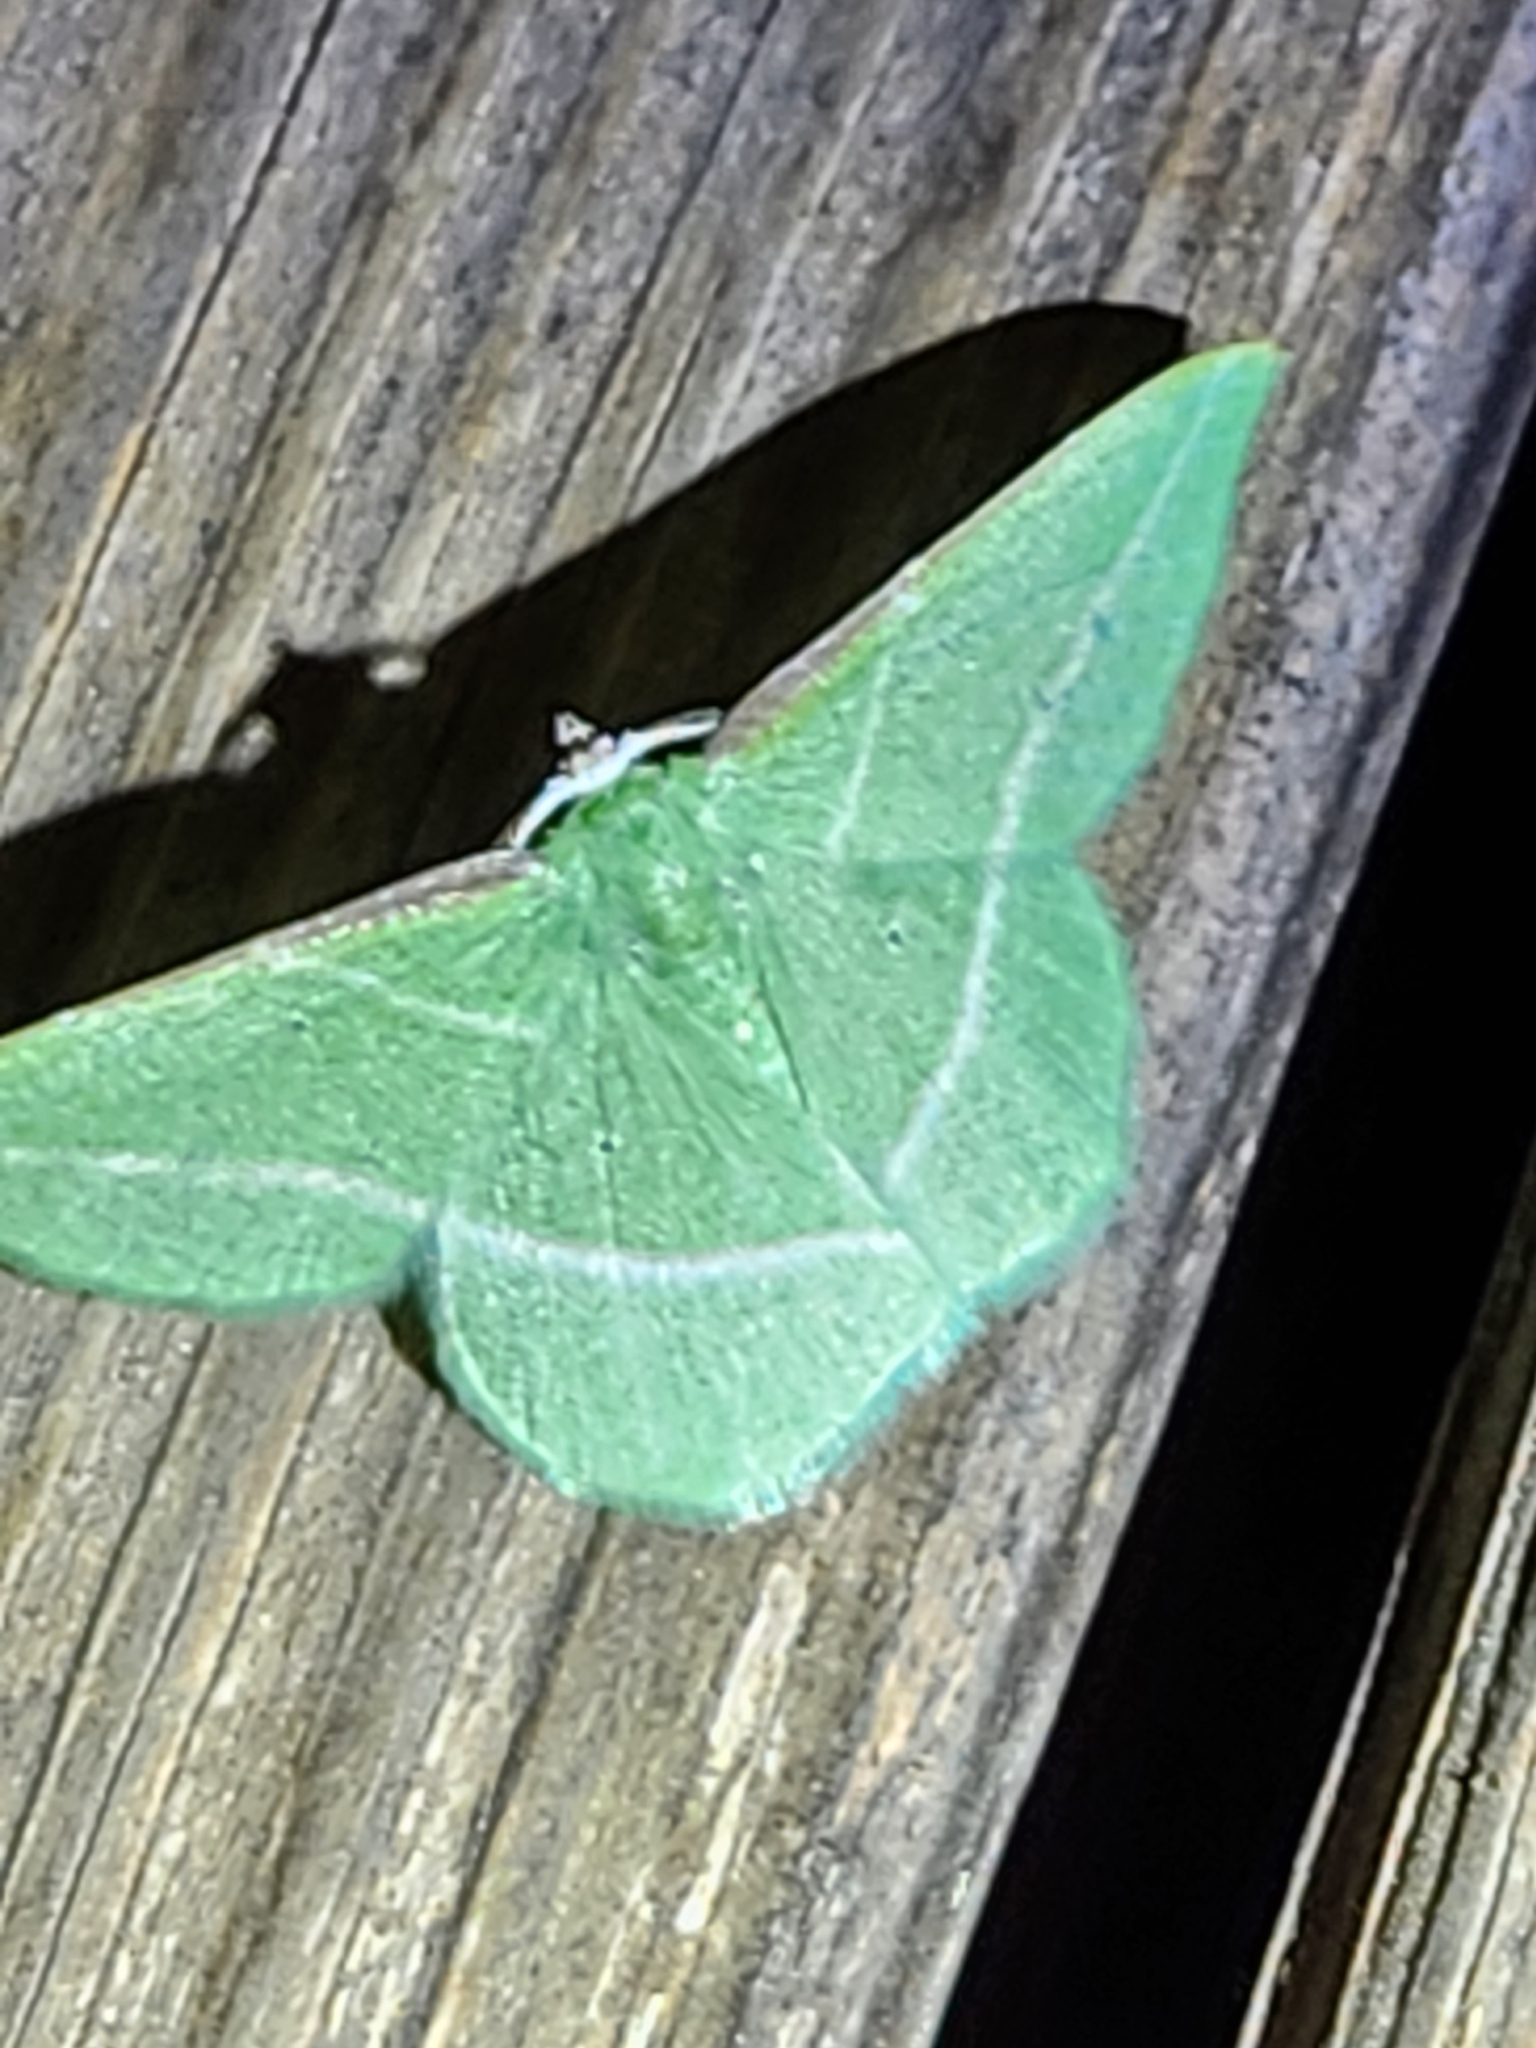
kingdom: Animalia
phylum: Arthropoda
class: Insecta
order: Lepidoptera
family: Geometridae
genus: Dichorda
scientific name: Dichorda rectaria
